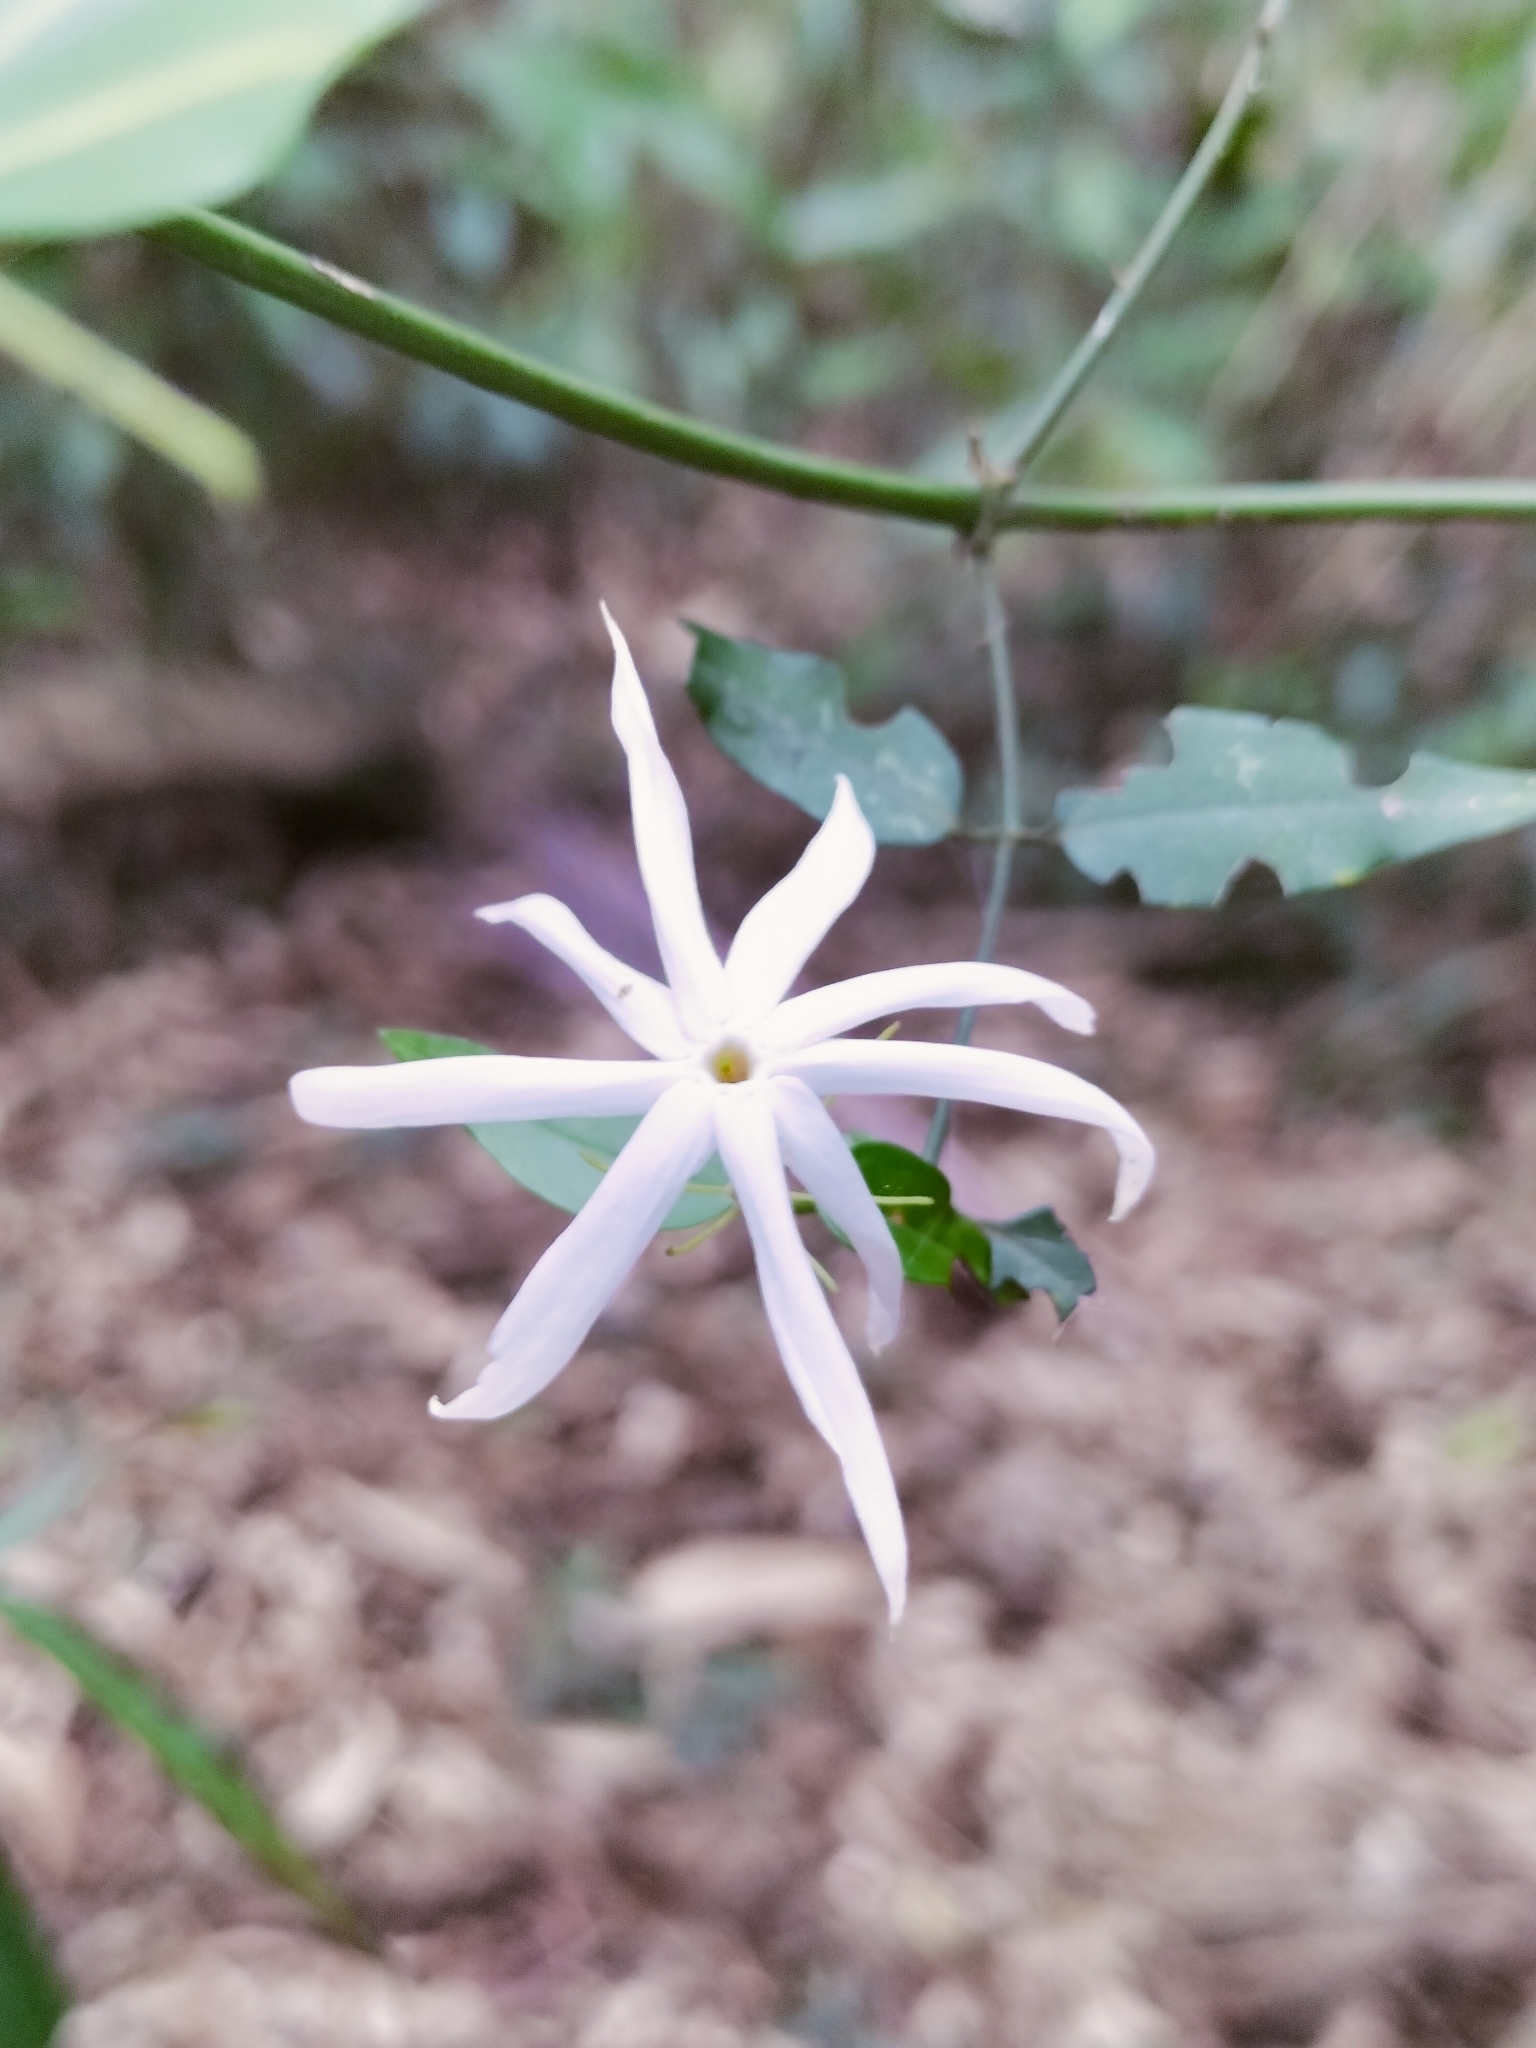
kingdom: Plantae
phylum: Tracheophyta
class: Magnoliopsida
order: Lamiales
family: Oleaceae
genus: Jasminum
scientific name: Jasminum nervosum
